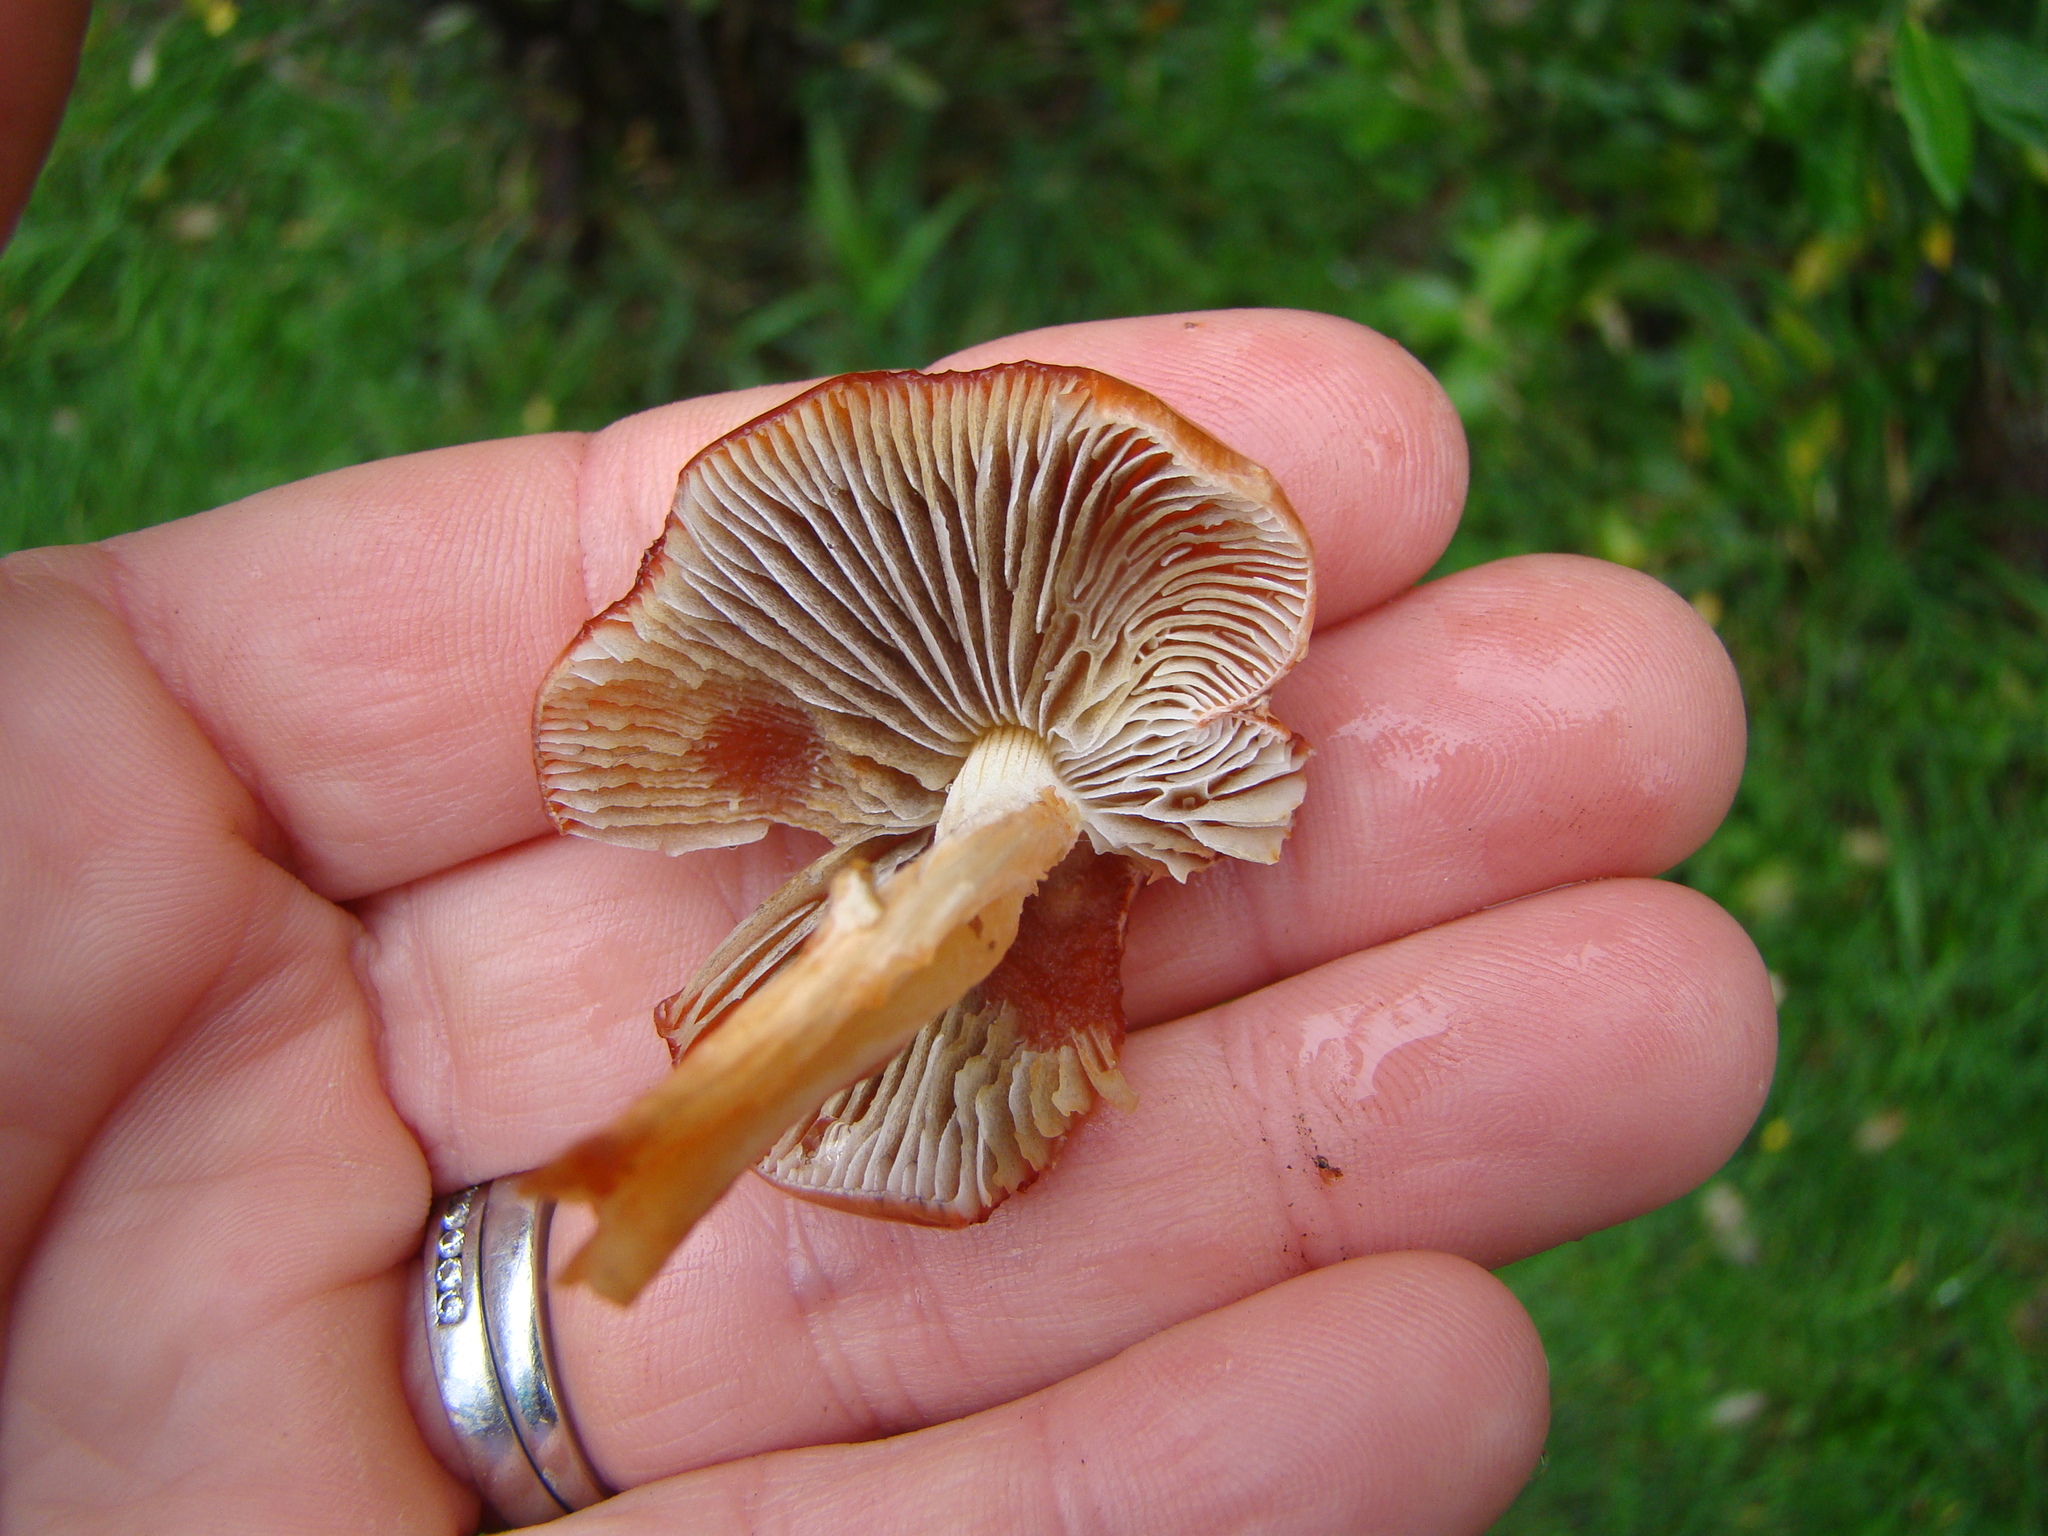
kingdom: Fungi
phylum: Basidiomycota
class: Agaricomycetes
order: Agaricales
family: Strophariaceae
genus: Leratiomyces
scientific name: Leratiomyces ceres
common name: Redlead roundhead
